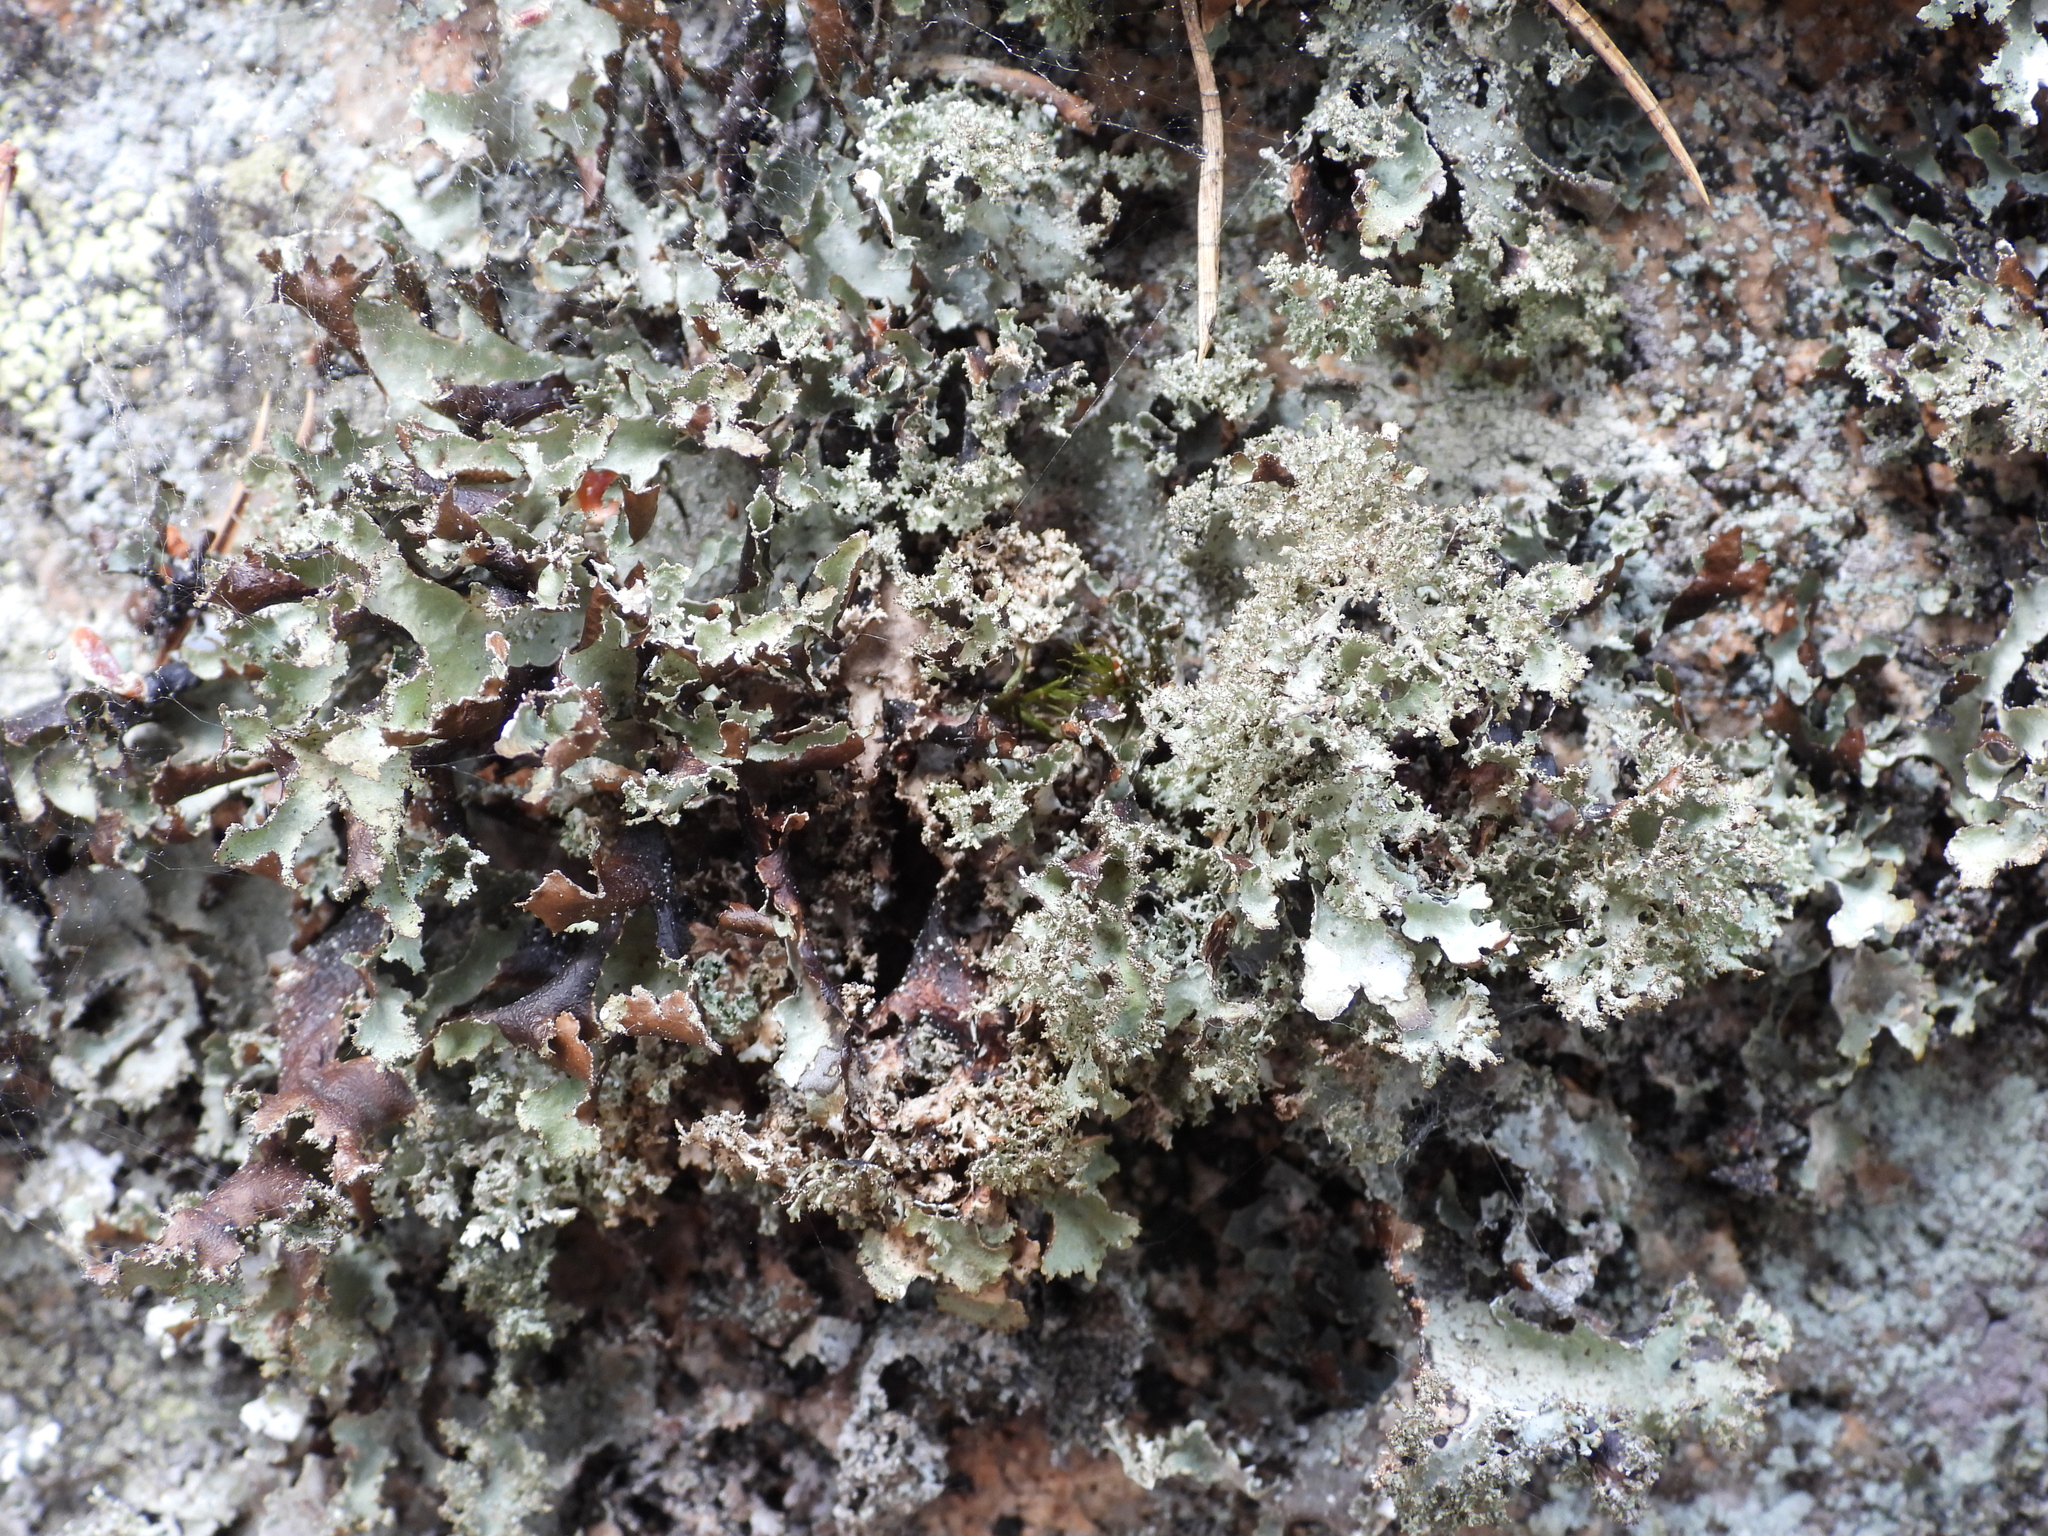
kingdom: Fungi
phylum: Ascomycota
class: Lecanoromycetes
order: Lecanorales
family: Parmeliaceae
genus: Platismatia
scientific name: Platismatia glauca
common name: Varied rag lichen
